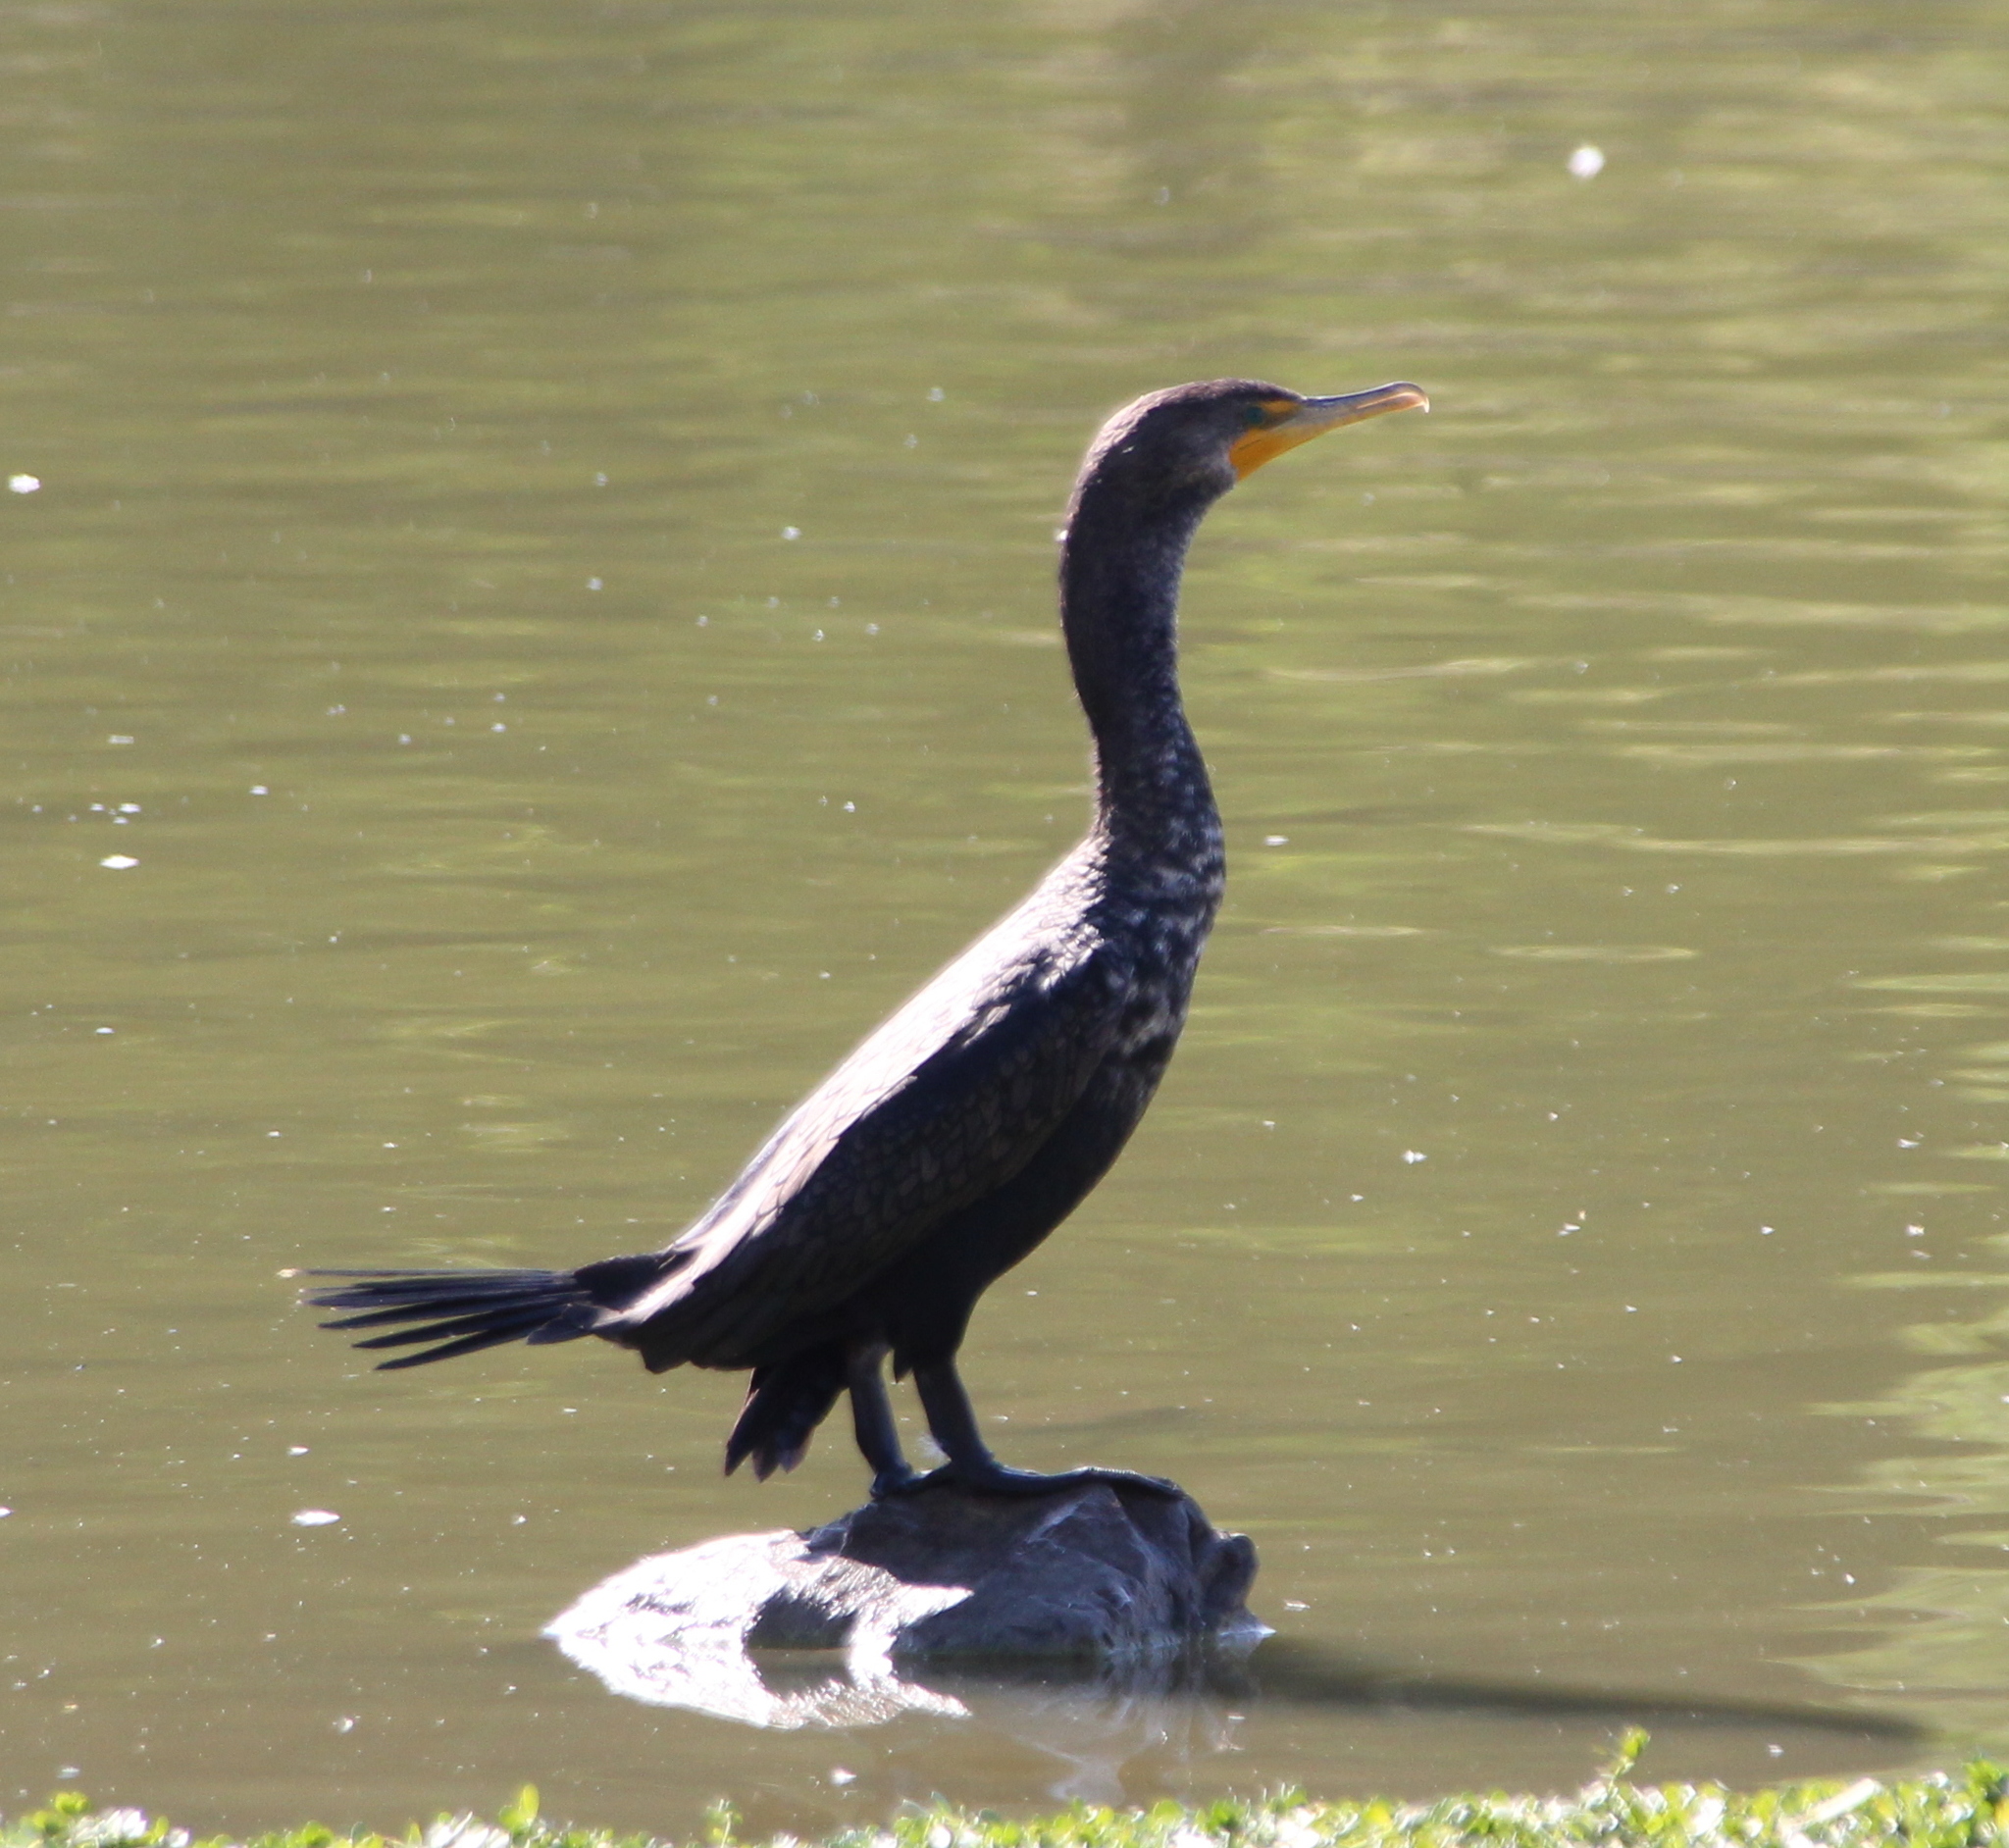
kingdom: Animalia
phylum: Chordata
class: Aves
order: Suliformes
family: Phalacrocoracidae
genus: Phalacrocorax
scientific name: Phalacrocorax auritus
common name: Double-crested cormorant
